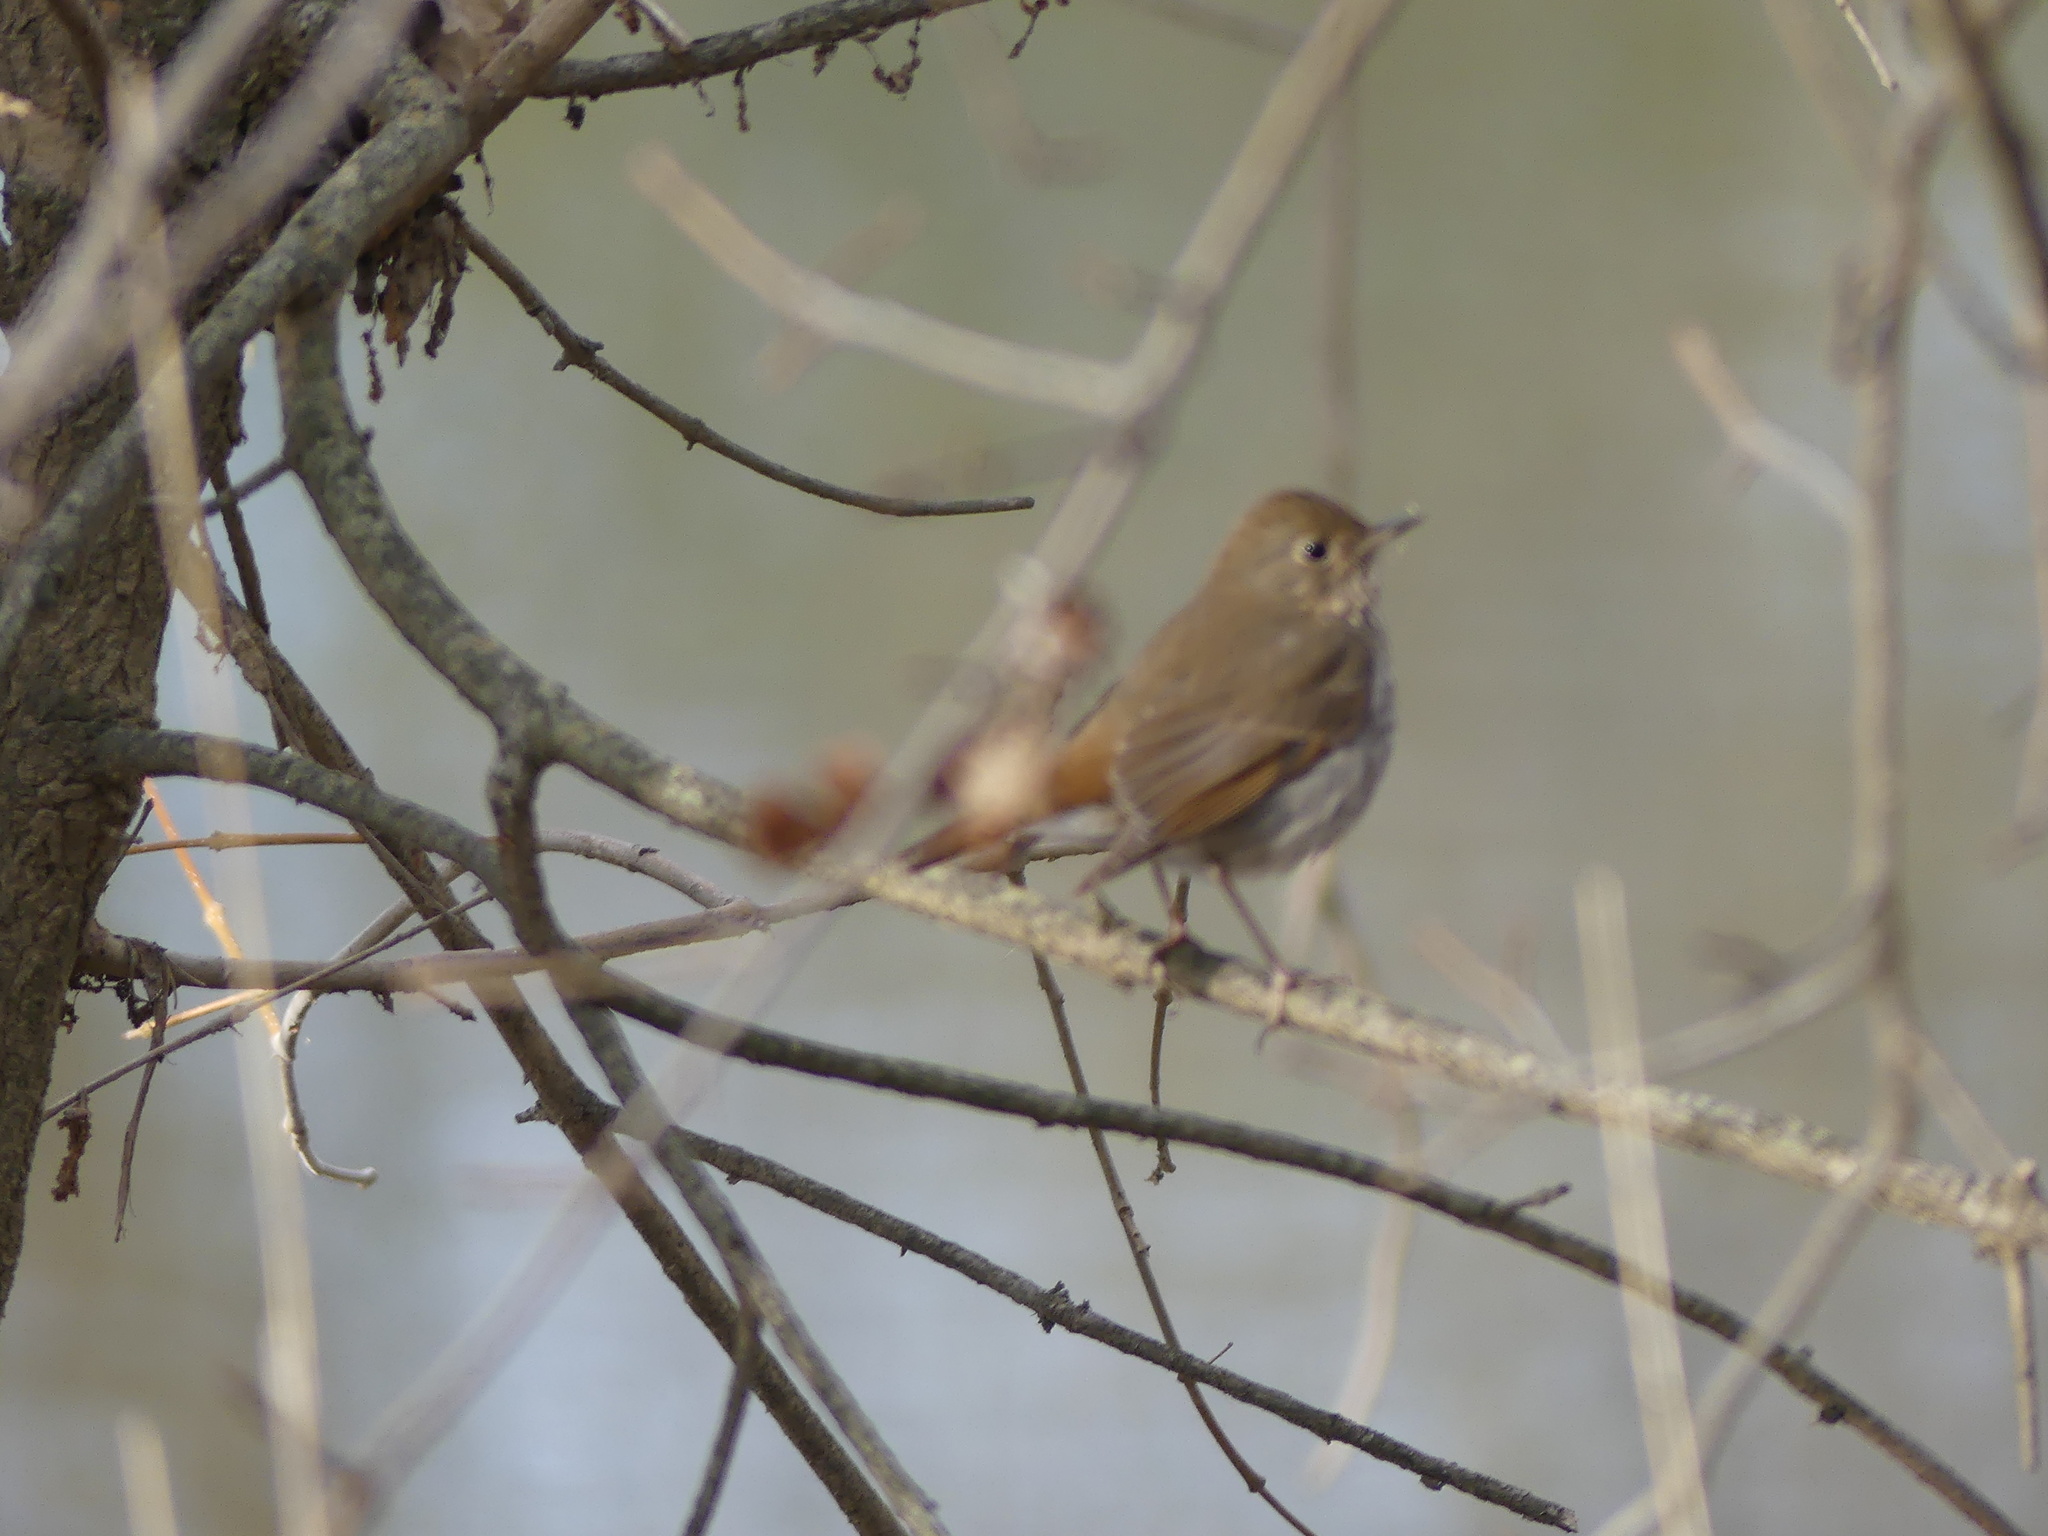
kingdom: Animalia
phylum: Chordata
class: Aves
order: Passeriformes
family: Turdidae
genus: Catharus
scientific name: Catharus guttatus
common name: Hermit thrush
